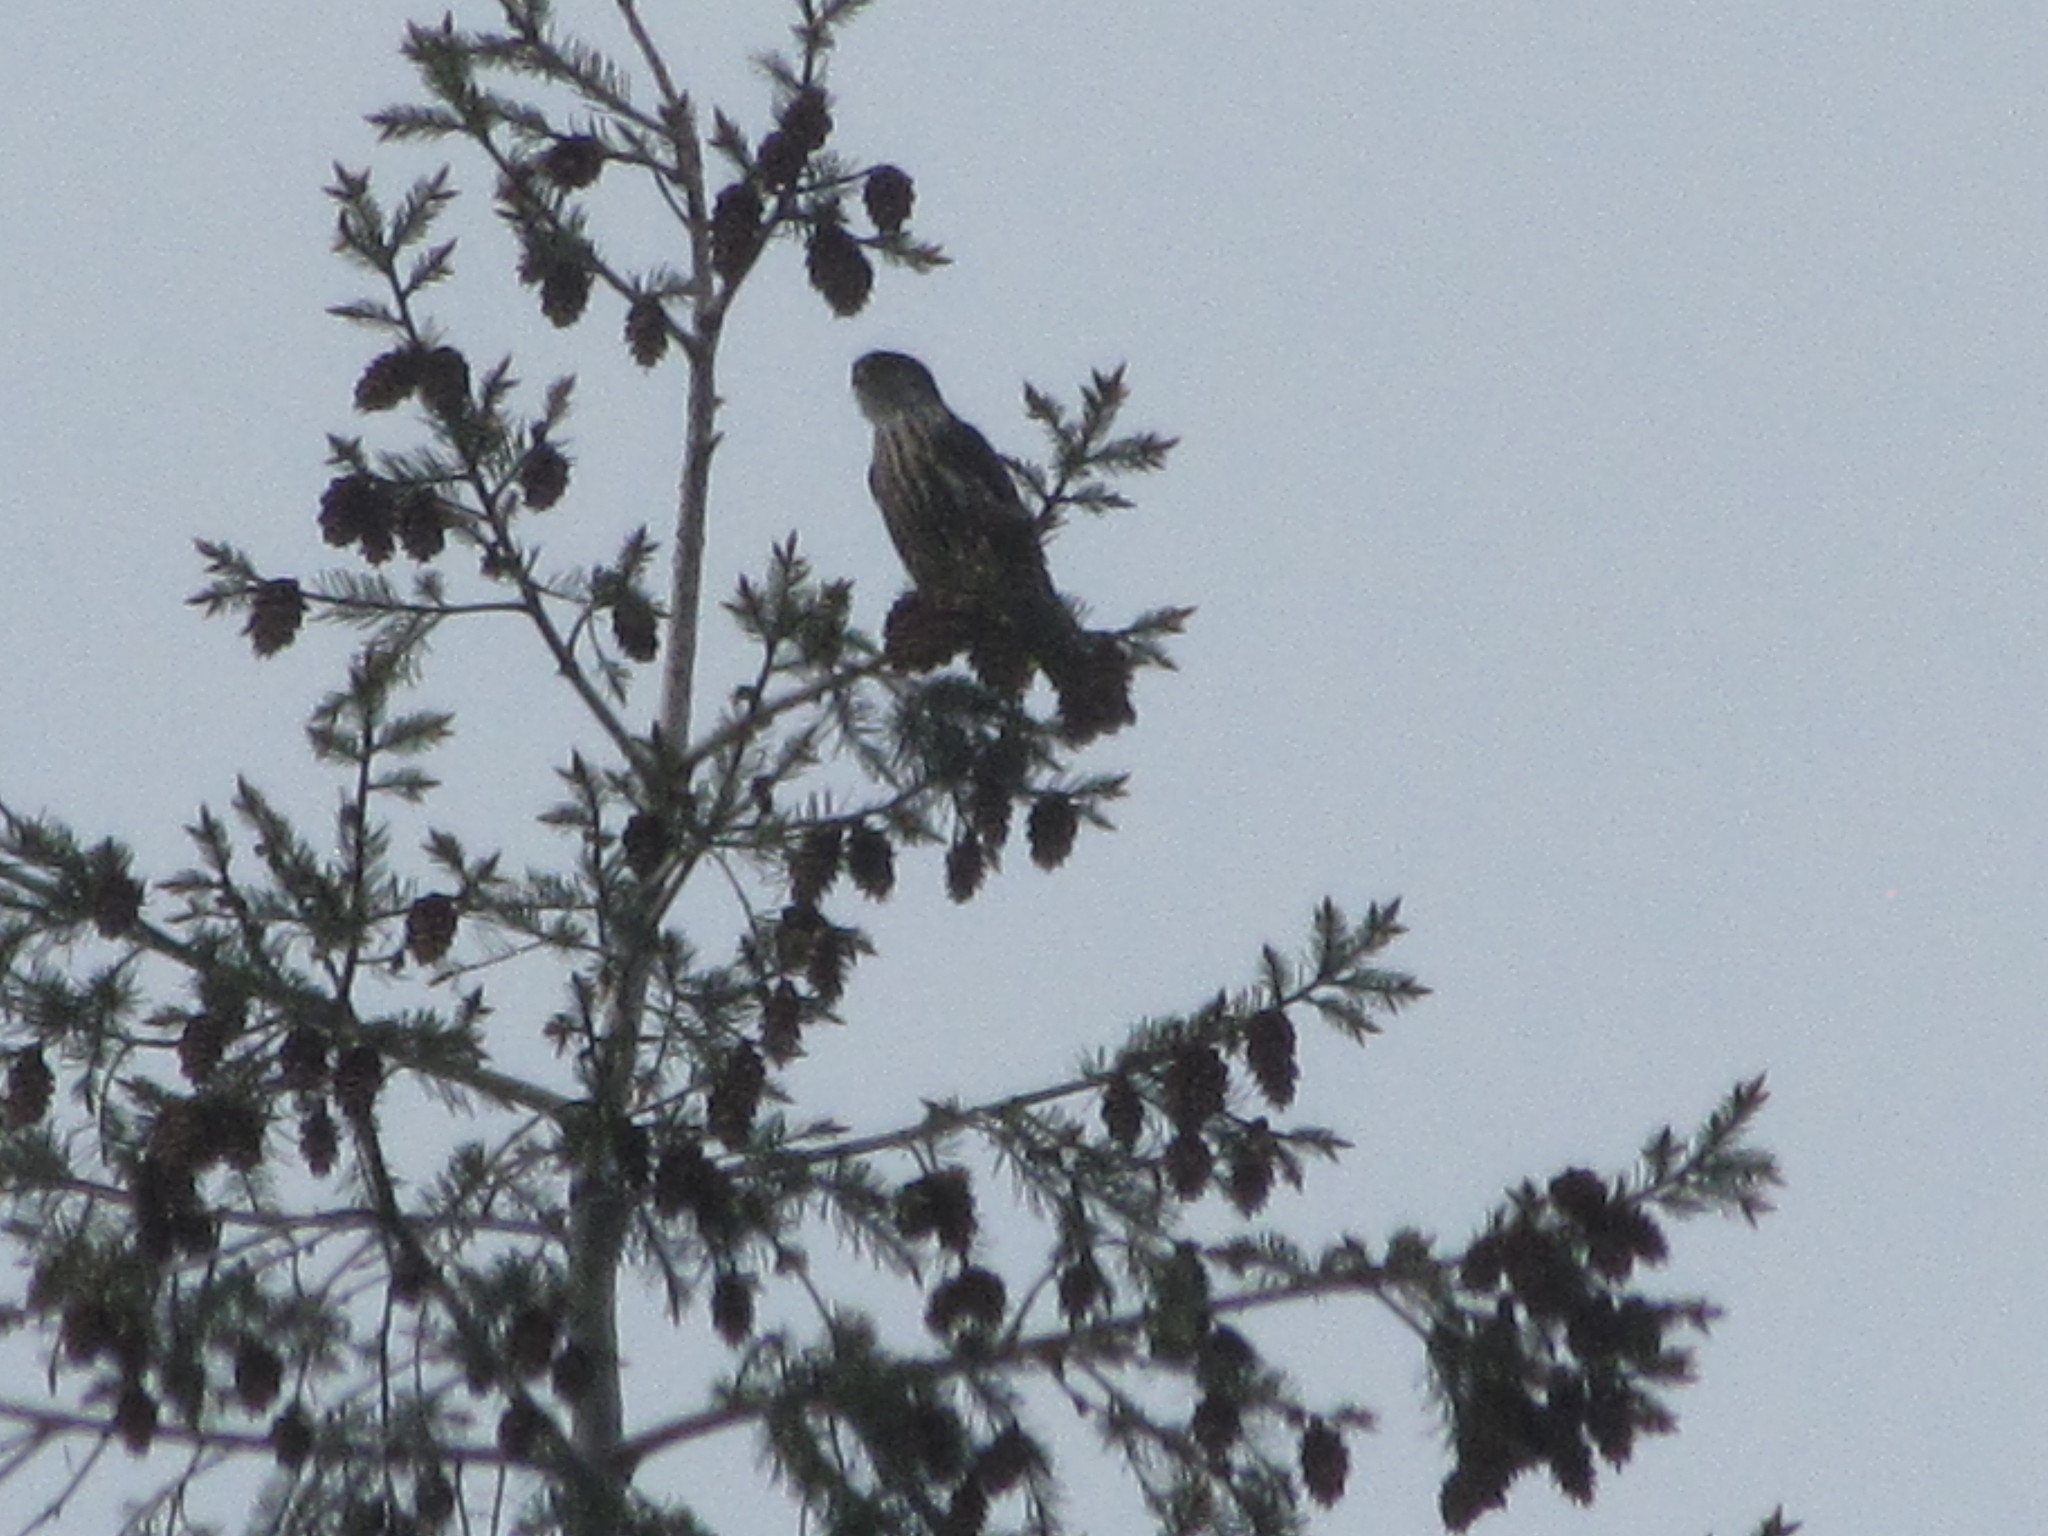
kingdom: Animalia
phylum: Chordata
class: Aves
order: Falconiformes
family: Falconidae
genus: Falco
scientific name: Falco columbarius
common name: Merlin
